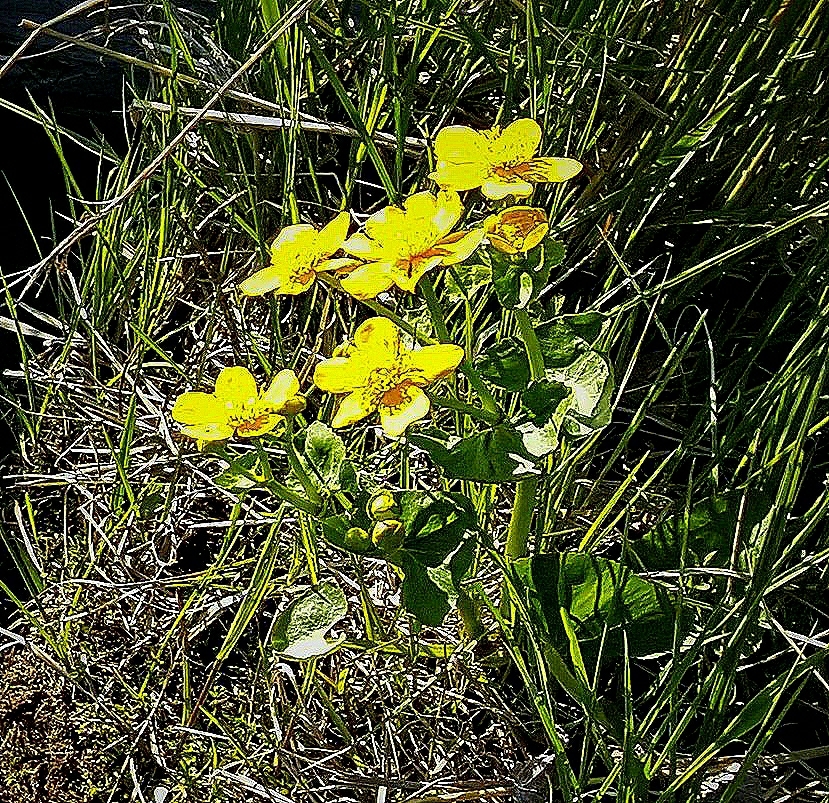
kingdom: Plantae
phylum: Tracheophyta
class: Magnoliopsida
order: Ranunculales
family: Ranunculaceae
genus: Caltha
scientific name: Caltha palustris
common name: Marsh marigold
